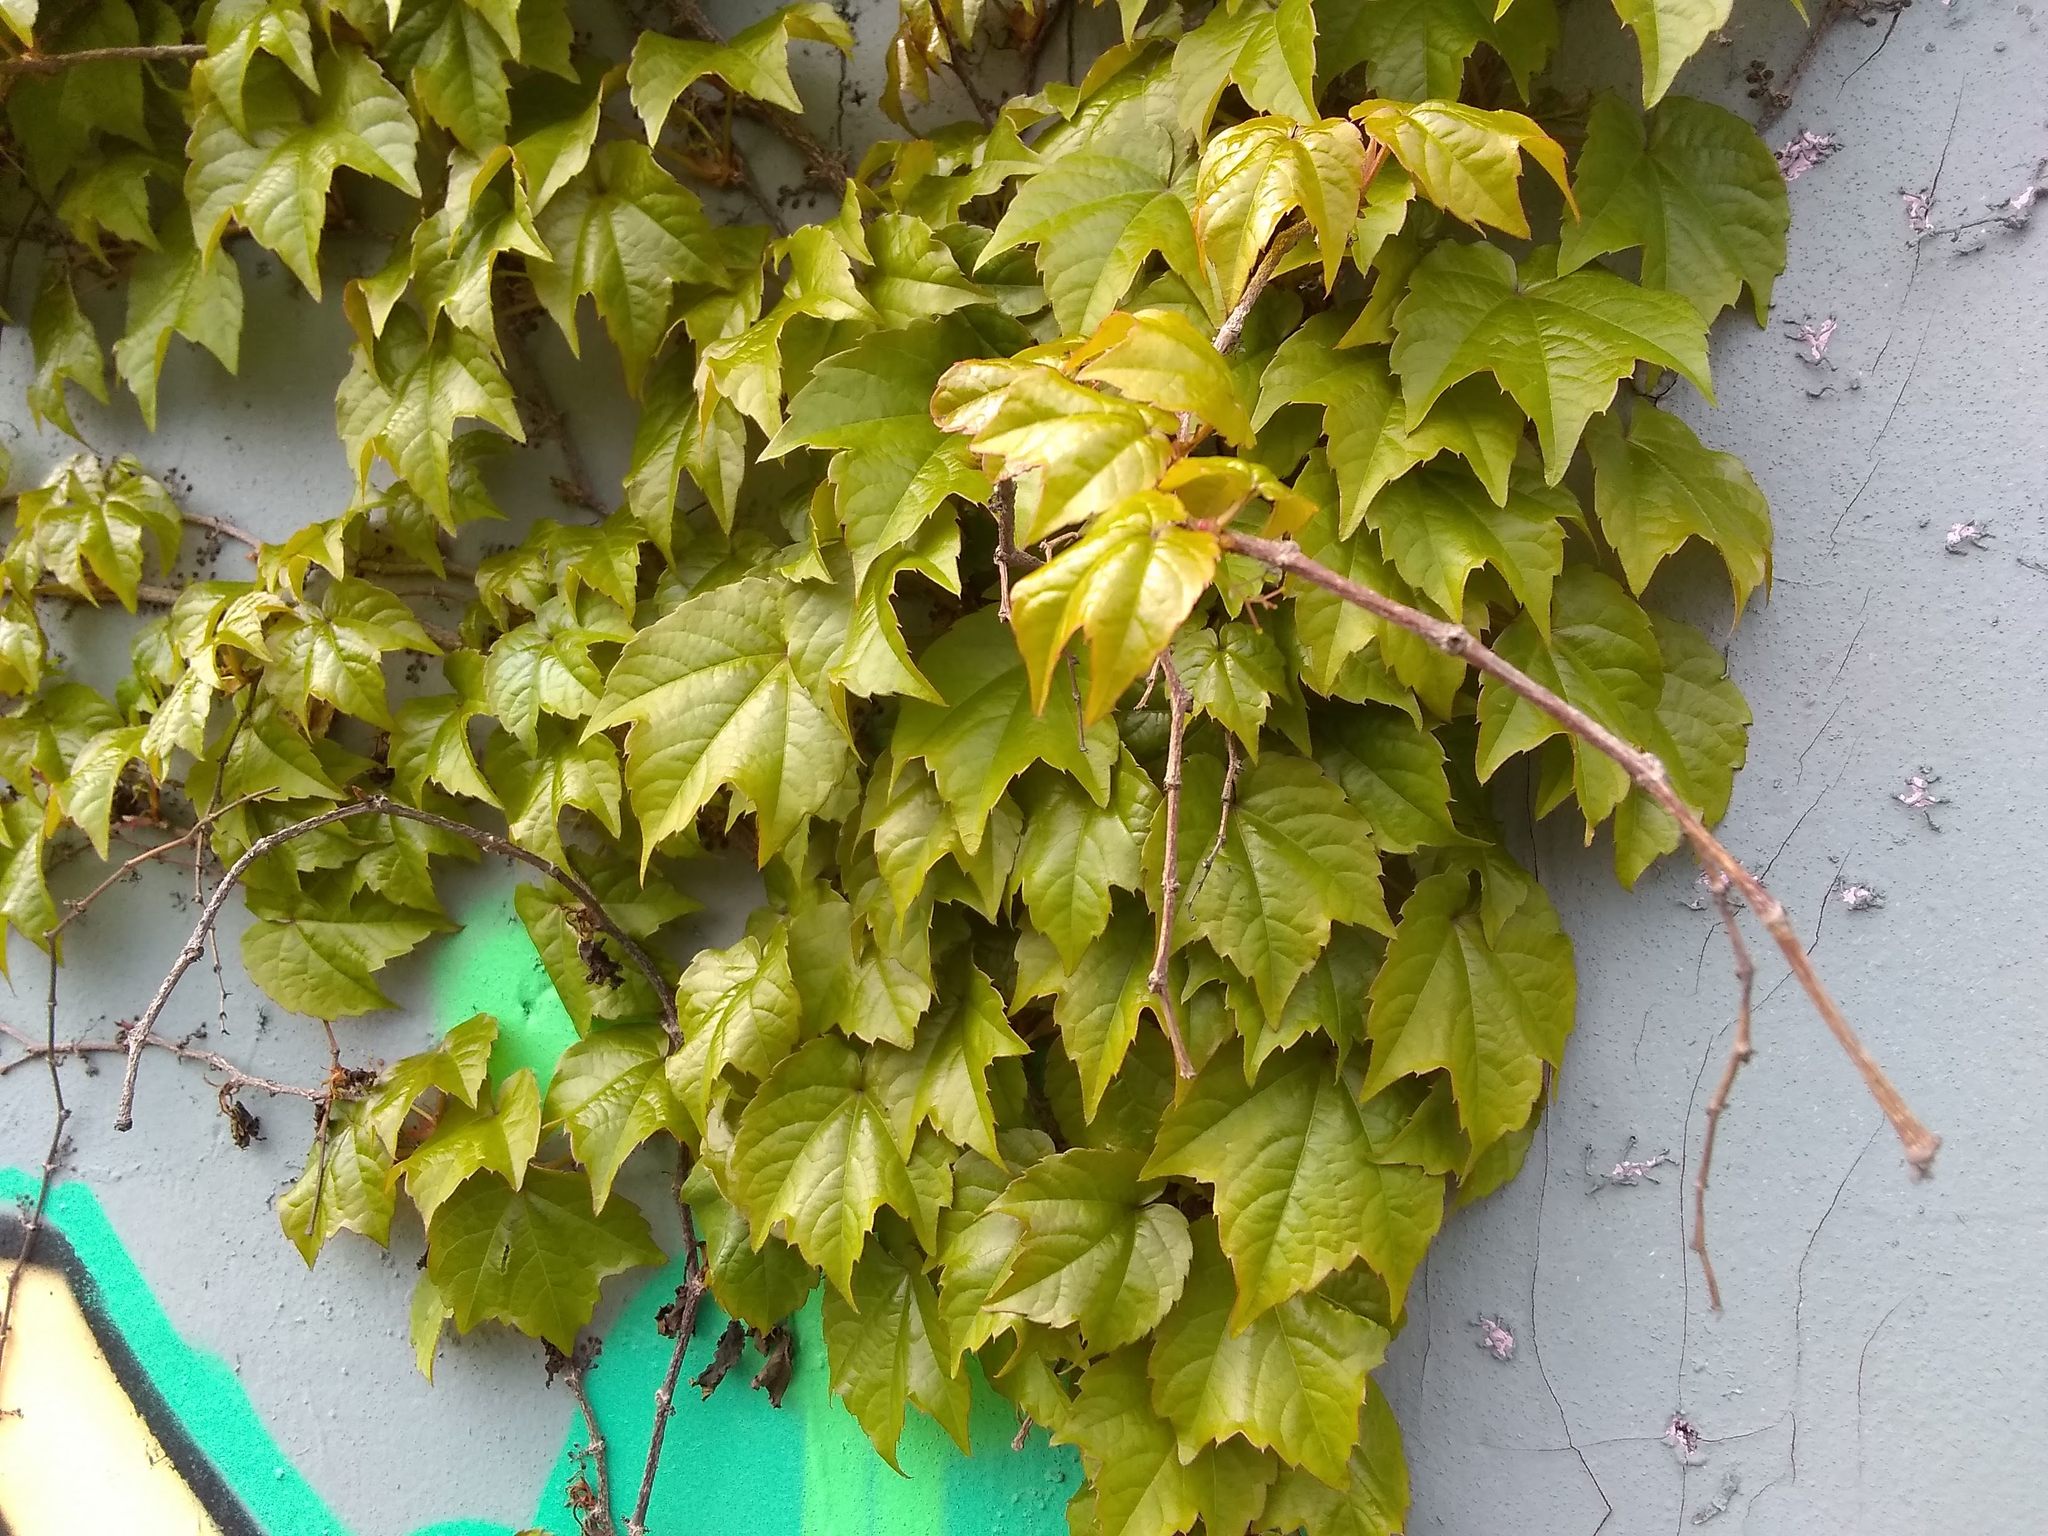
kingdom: Plantae
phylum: Tracheophyta
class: Magnoliopsida
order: Vitales
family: Vitaceae
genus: Parthenocissus
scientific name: Parthenocissus tricuspidata
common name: Boston ivy
